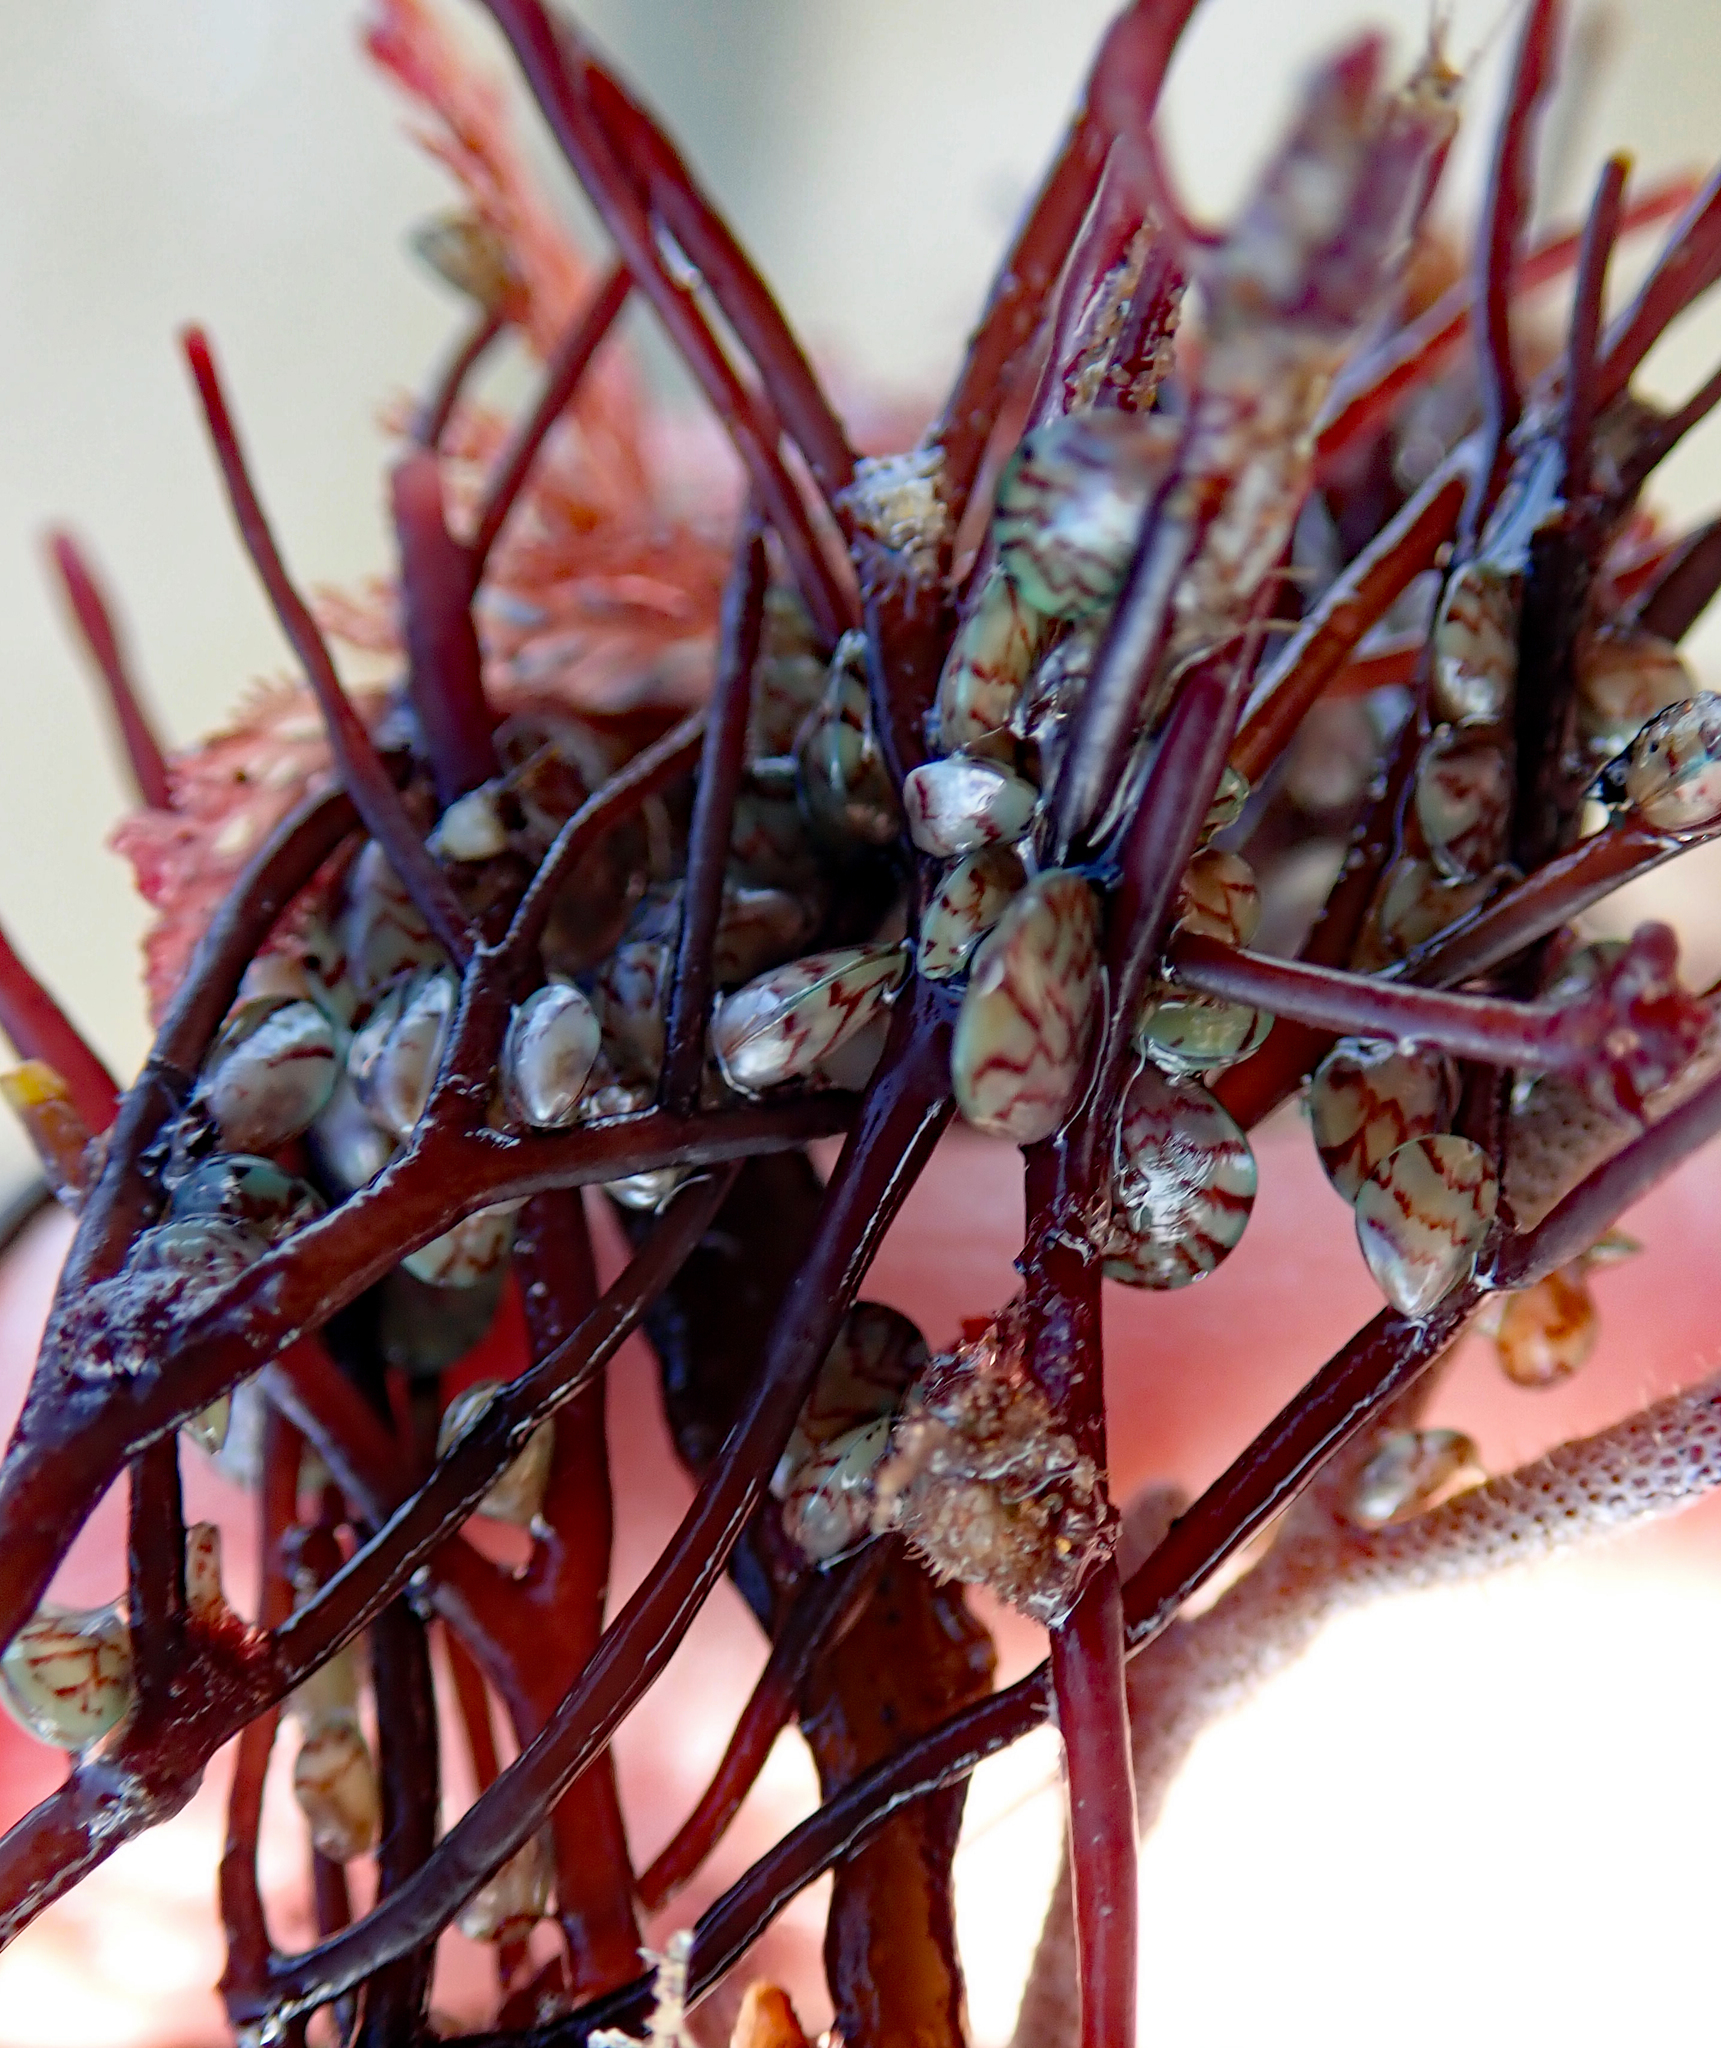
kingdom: Animalia
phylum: Mollusca
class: Bivalvia
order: Mytilida
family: Mytilidae
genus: Perna
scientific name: Perna canaliculus
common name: New zealand greenshelltm
